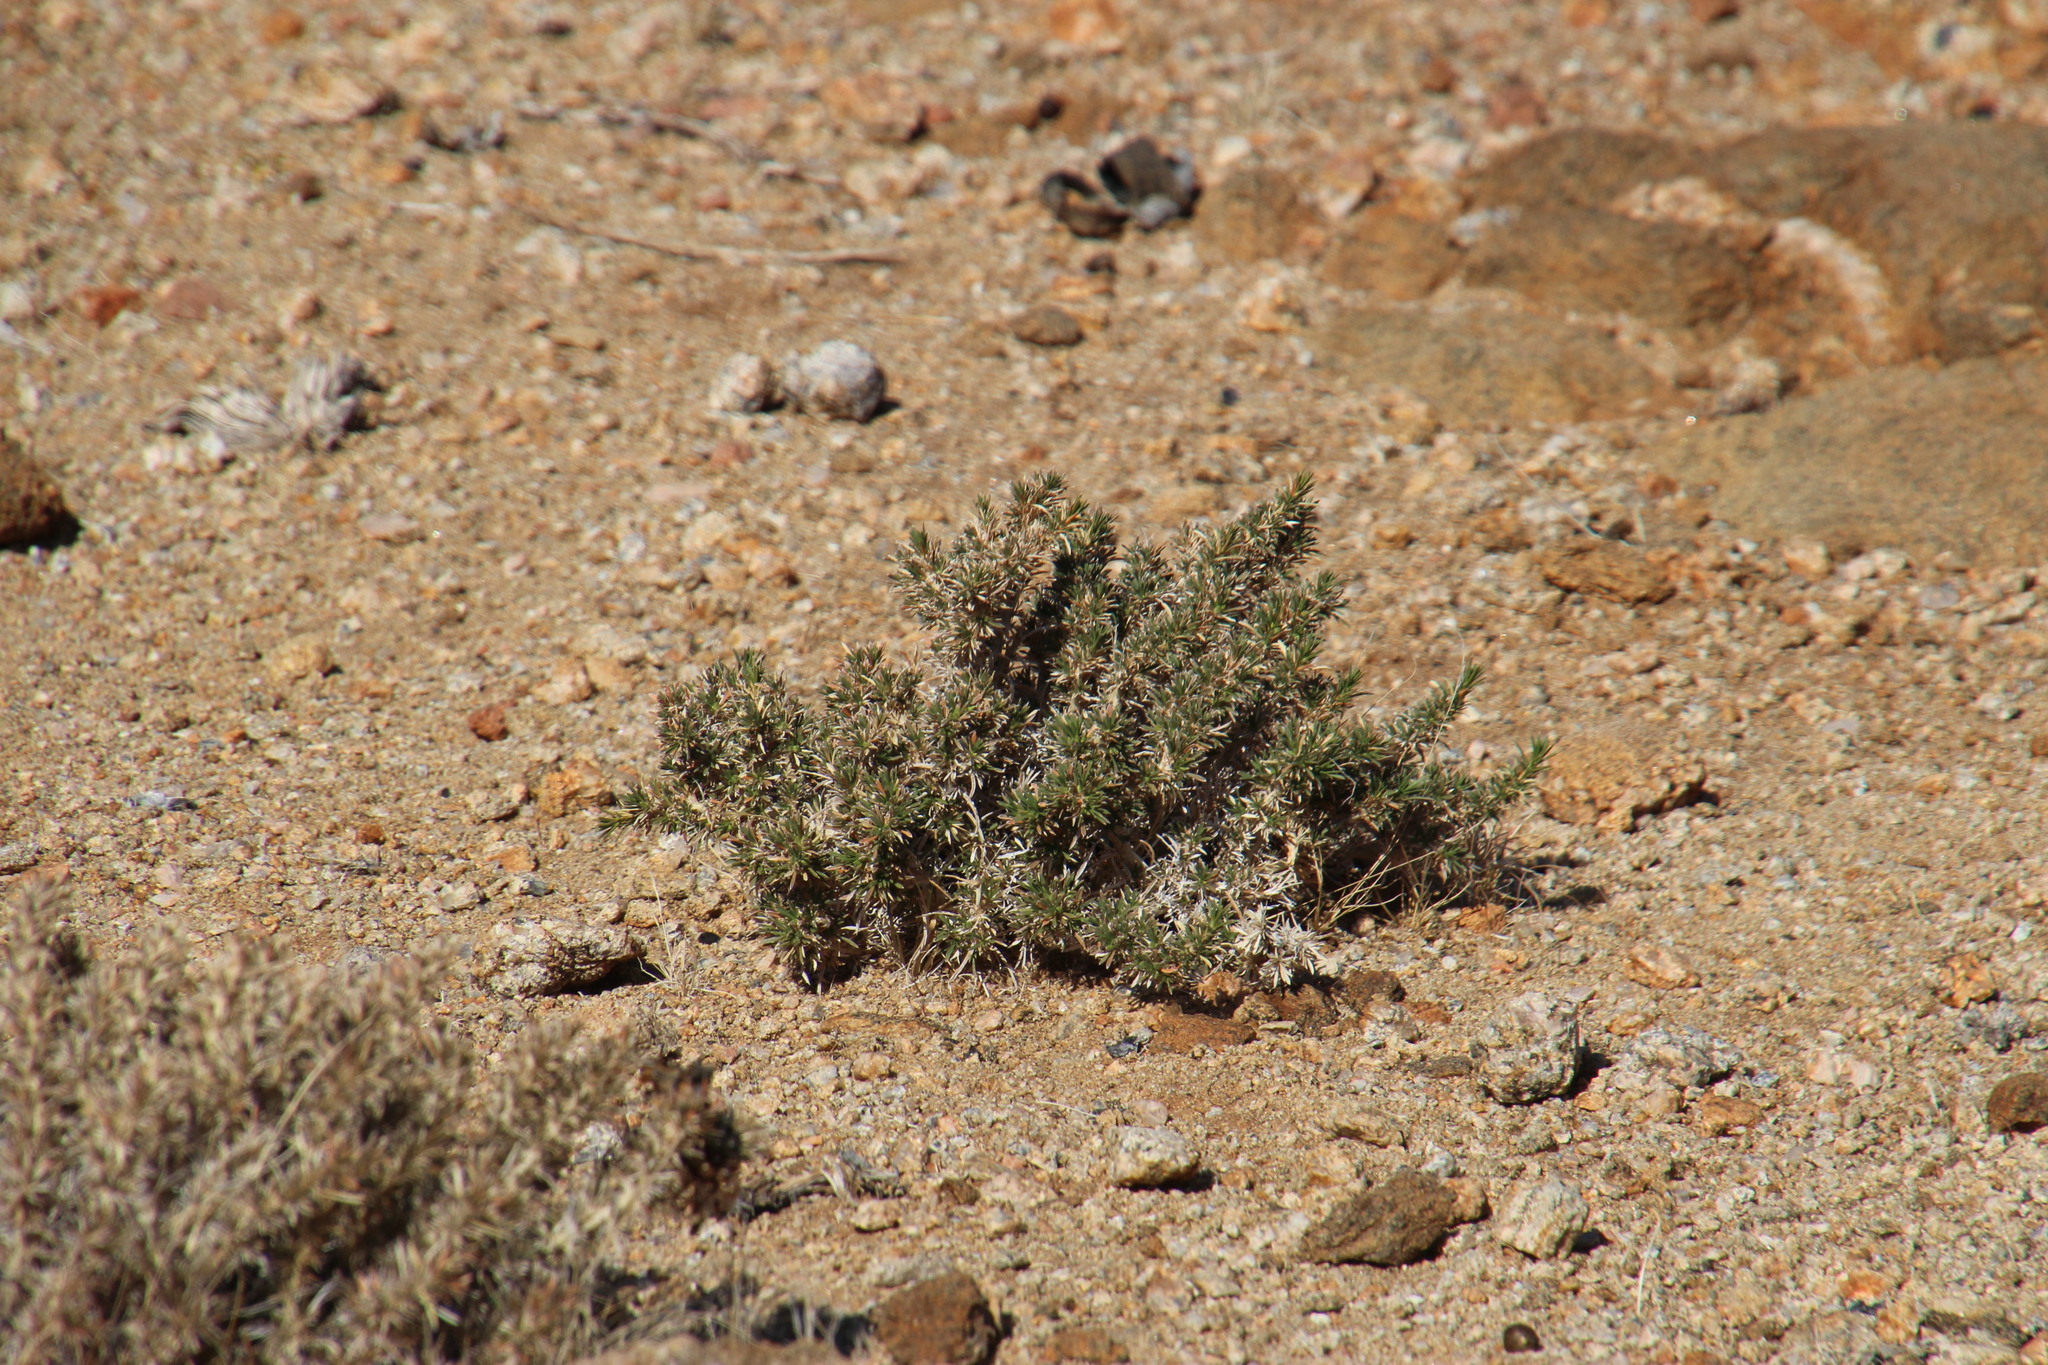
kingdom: Plantae
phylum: Tracheophyta
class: Magnoliopsida
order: Lamiales
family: Scrophulariaceae
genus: Aptosimum
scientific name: Aptosimum spinescens
